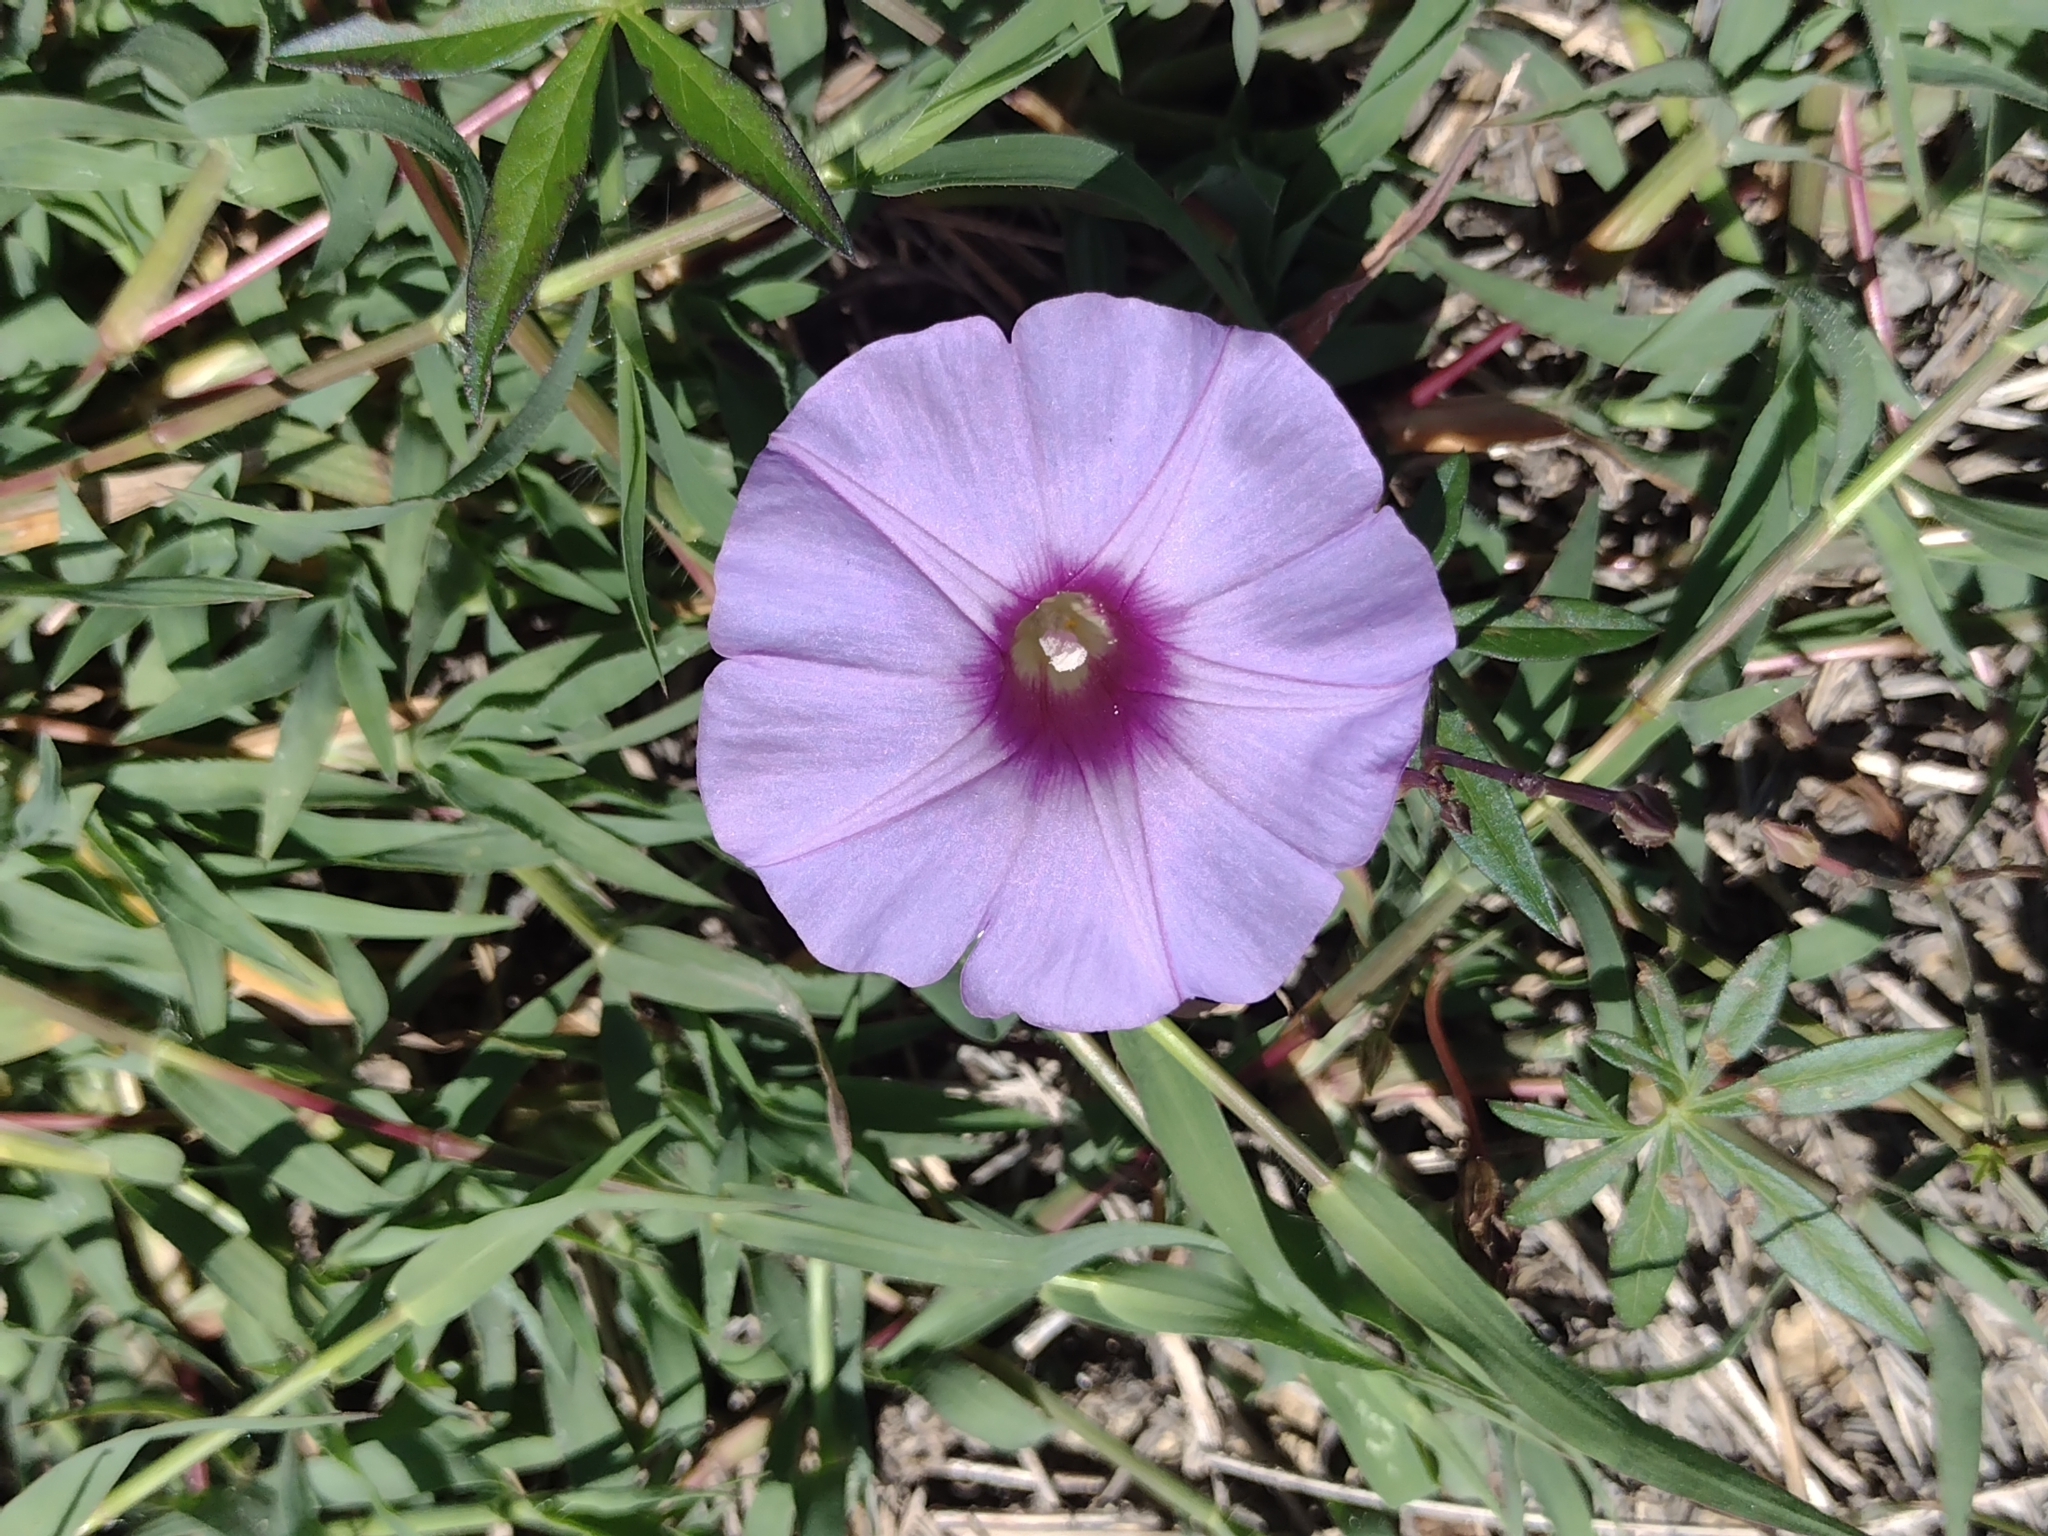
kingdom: Plantae
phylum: Tracheophyta
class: Magnoliopsida
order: Solanales
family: Convolvulaceae
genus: Ipomoea
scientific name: Ipomoea ternifolia
